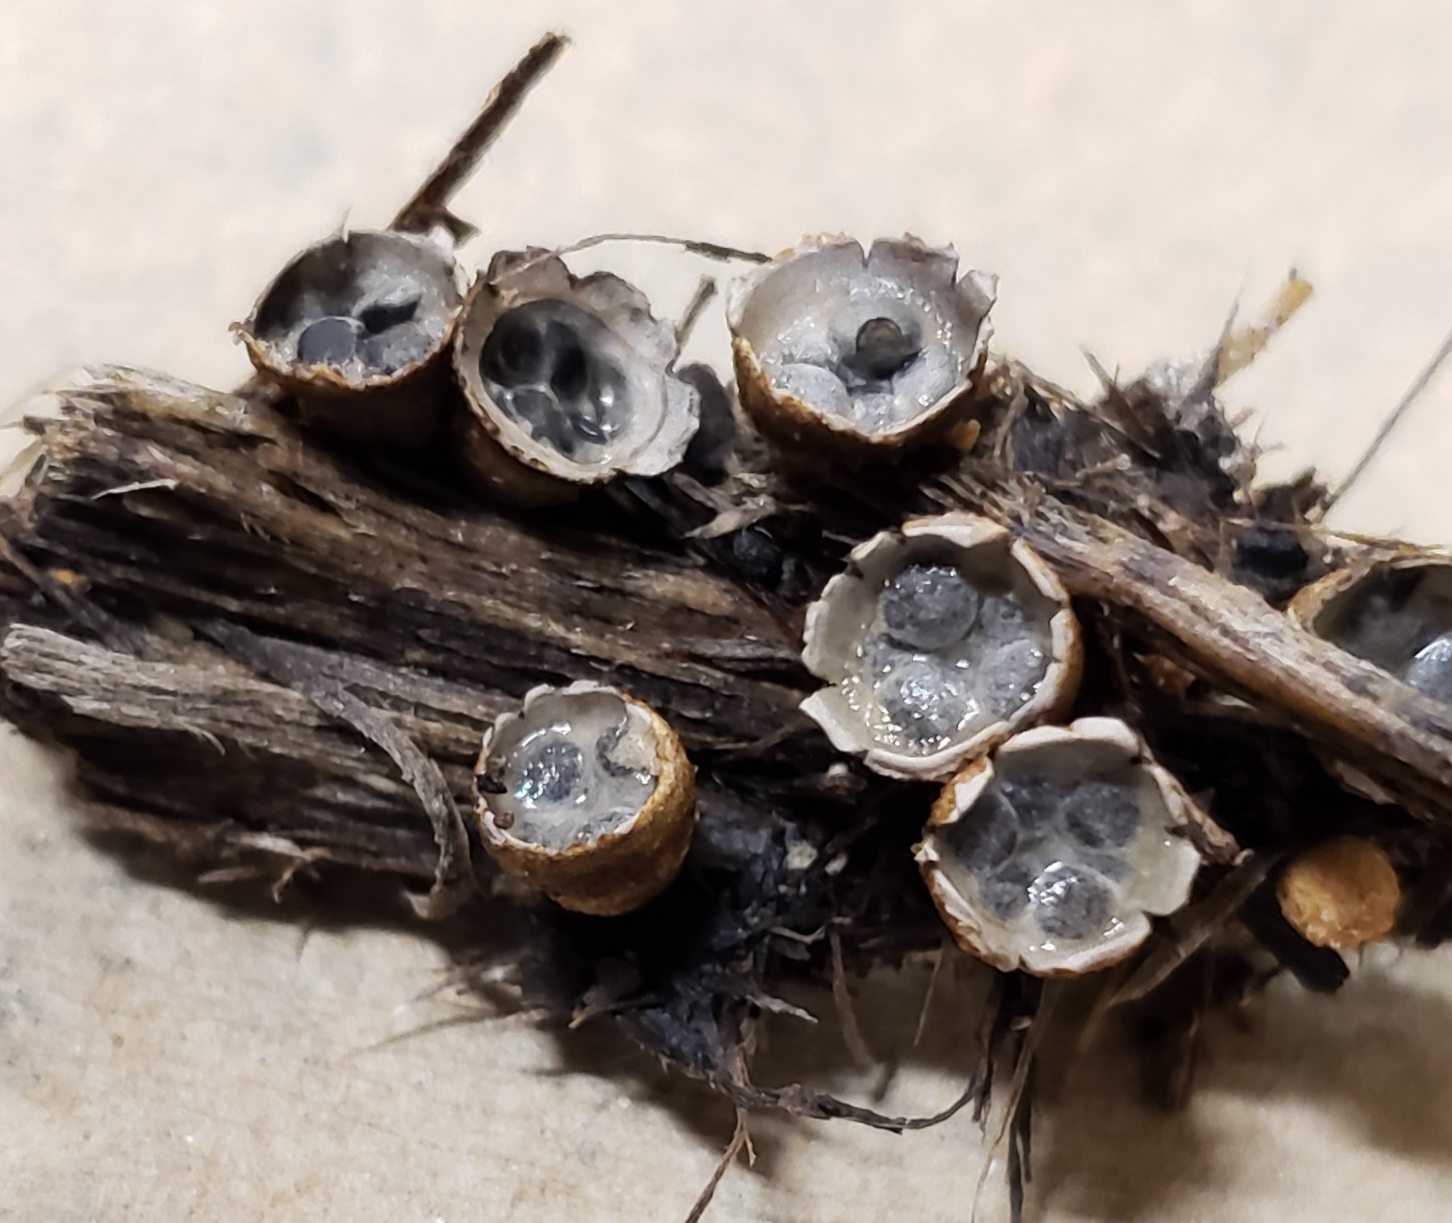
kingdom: Fungi
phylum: Basidiomycota
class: Agaricomycetes
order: Agaricales
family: Agaricaceae
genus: Cyathus
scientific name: Cyathus stercoreus
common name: Dung bird's nest
